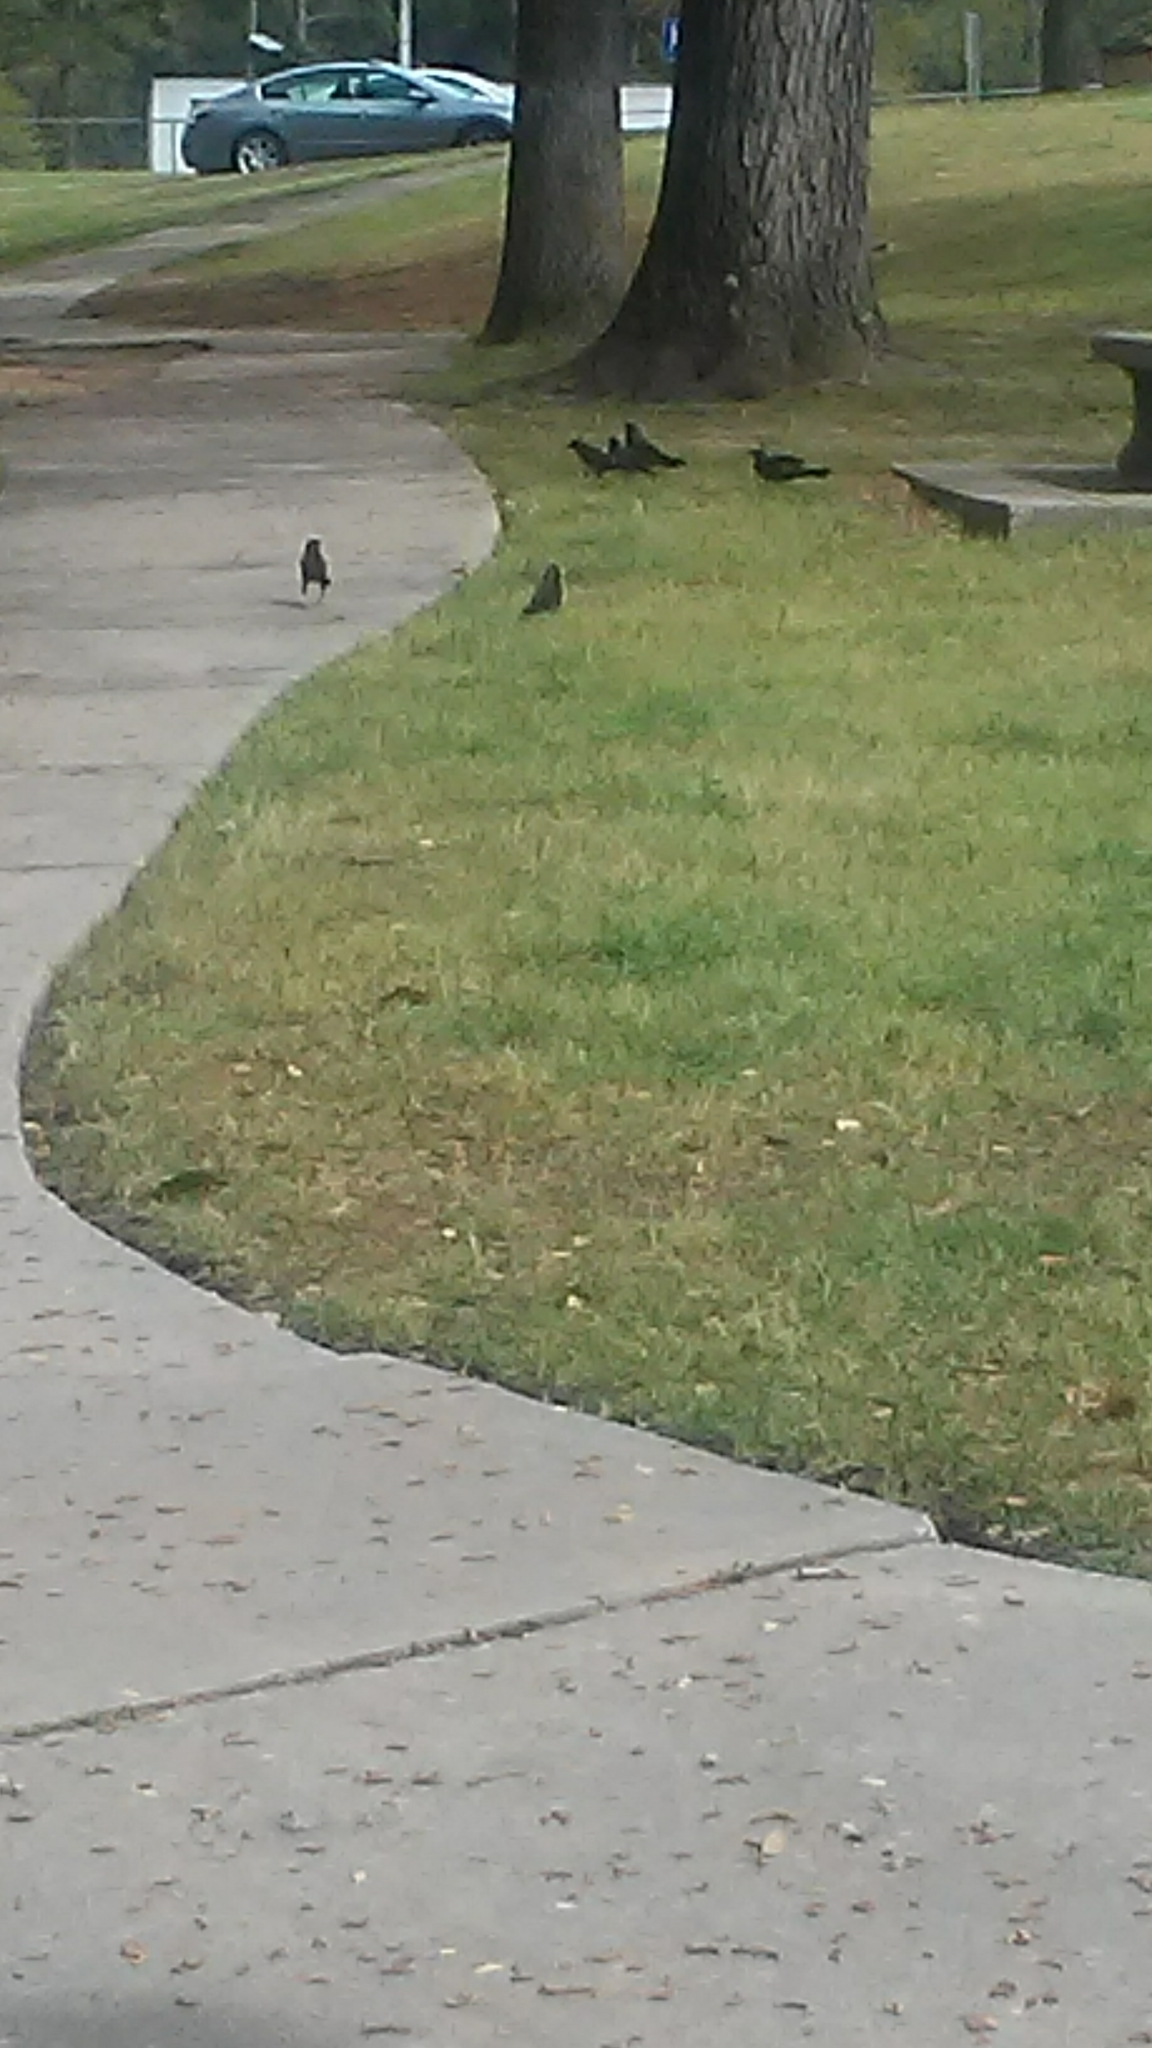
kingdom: Animalia
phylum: Chordata
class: Aves
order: Passeriformes
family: Icteridae
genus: Quiscalus
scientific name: Quiscalus quiscula
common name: Common grackle
